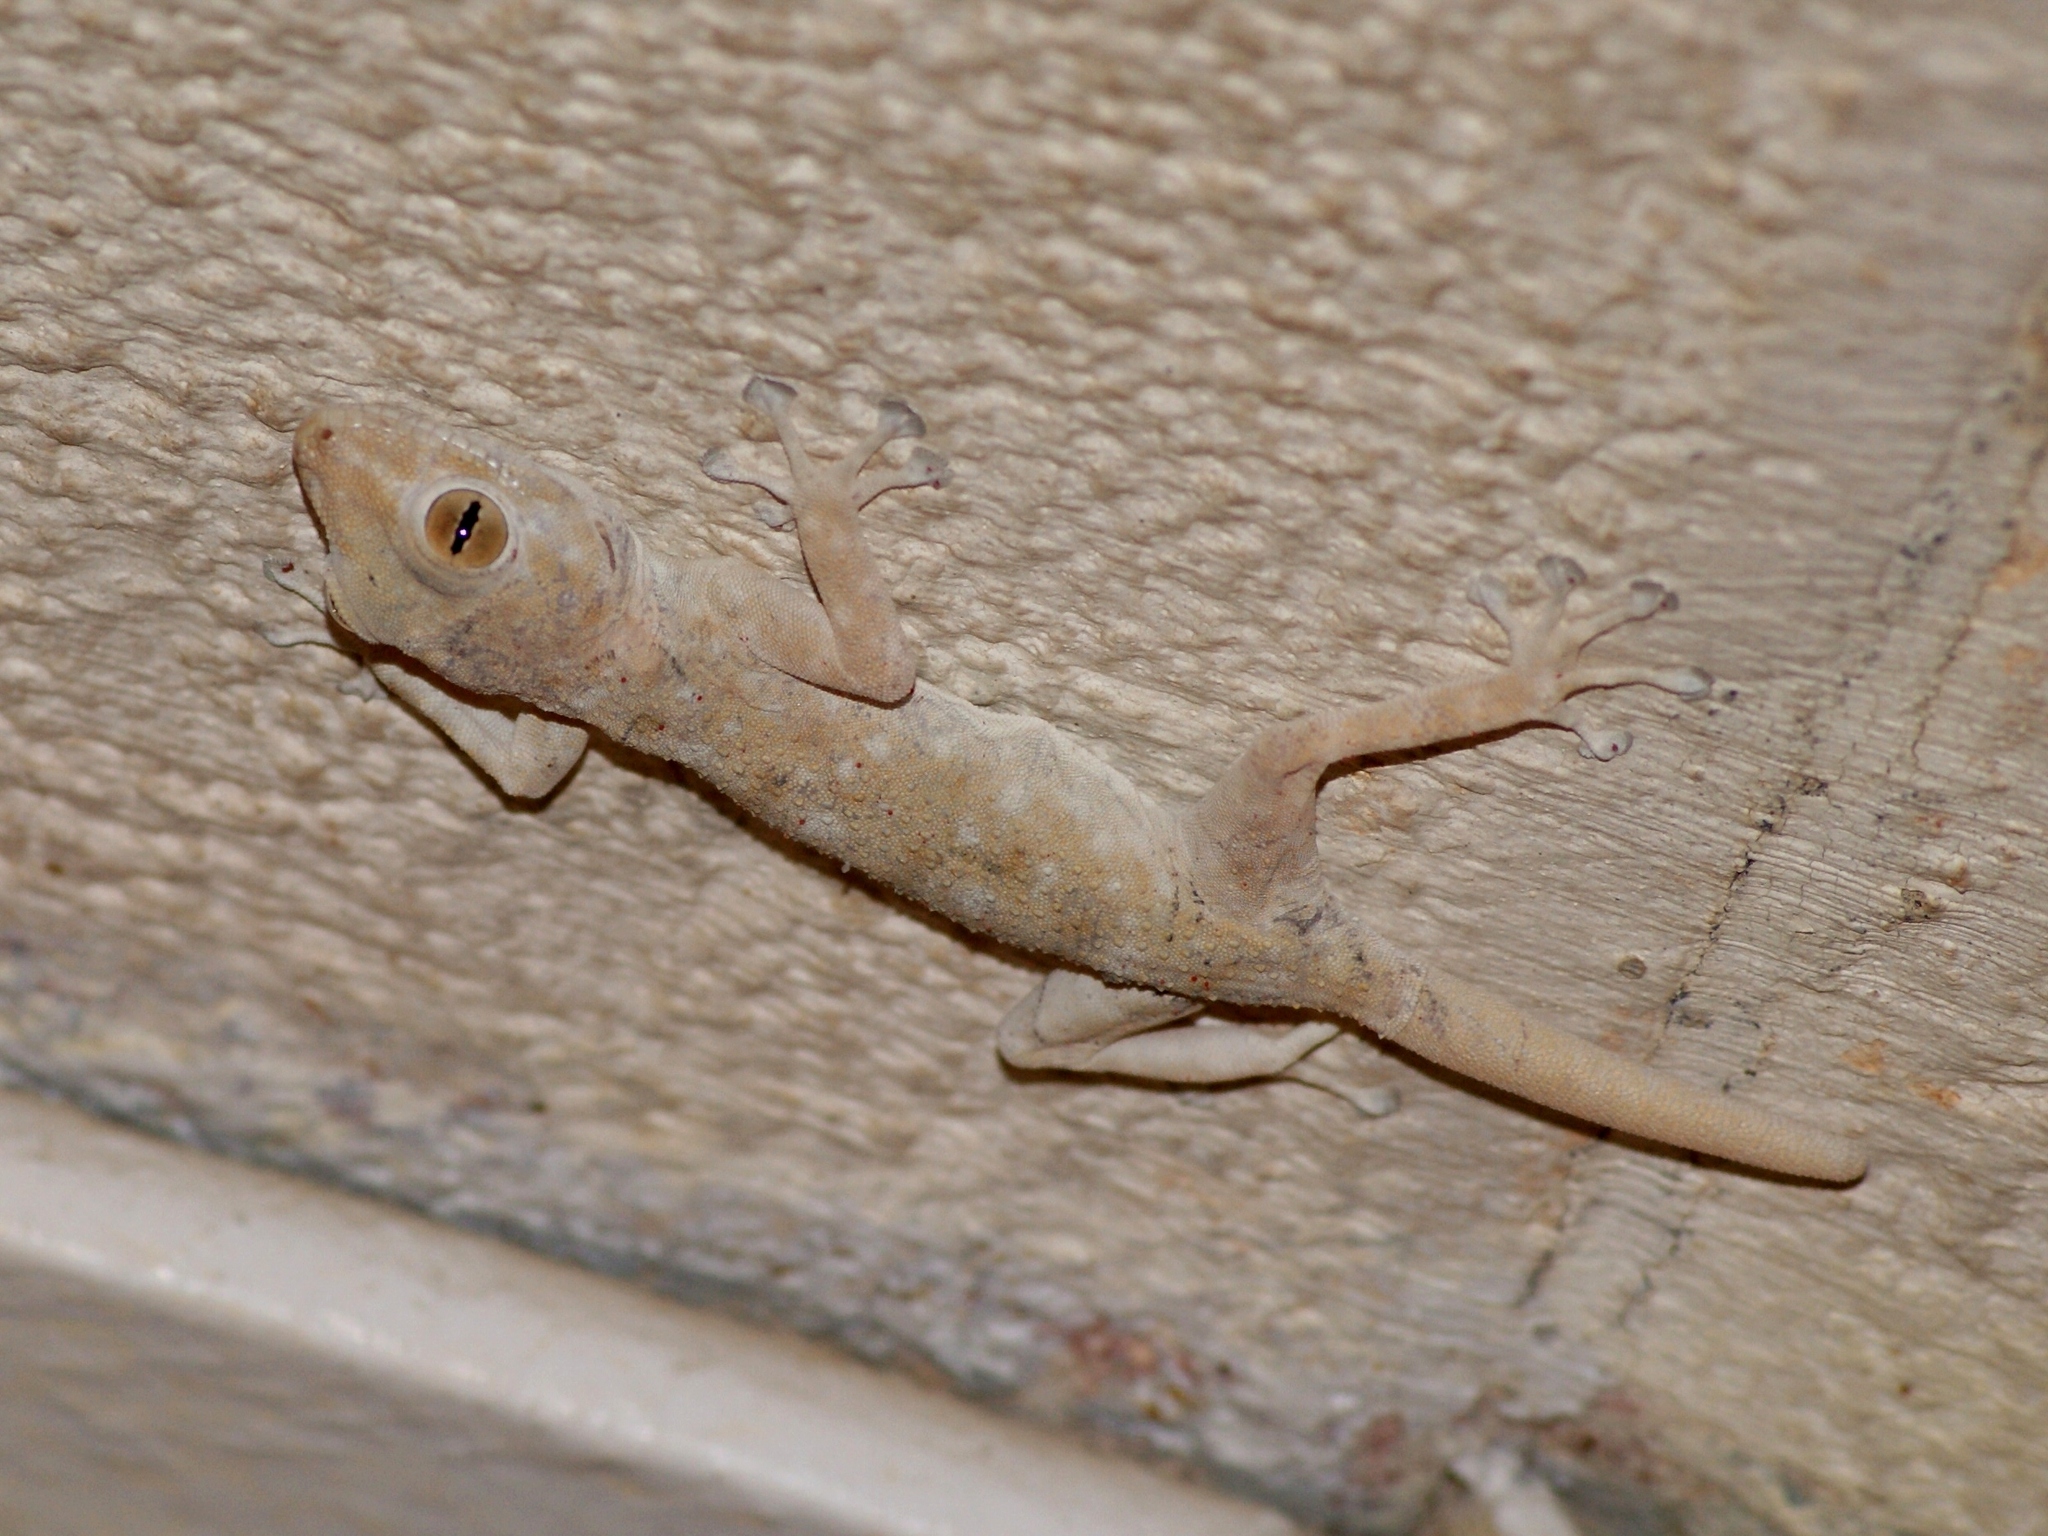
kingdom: Animalia
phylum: Chordata
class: Squamata
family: Phyllodactylidae
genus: Ptyodactylus
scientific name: Ptyodactylus guttatus
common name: Sinai fan-fingered gecko
